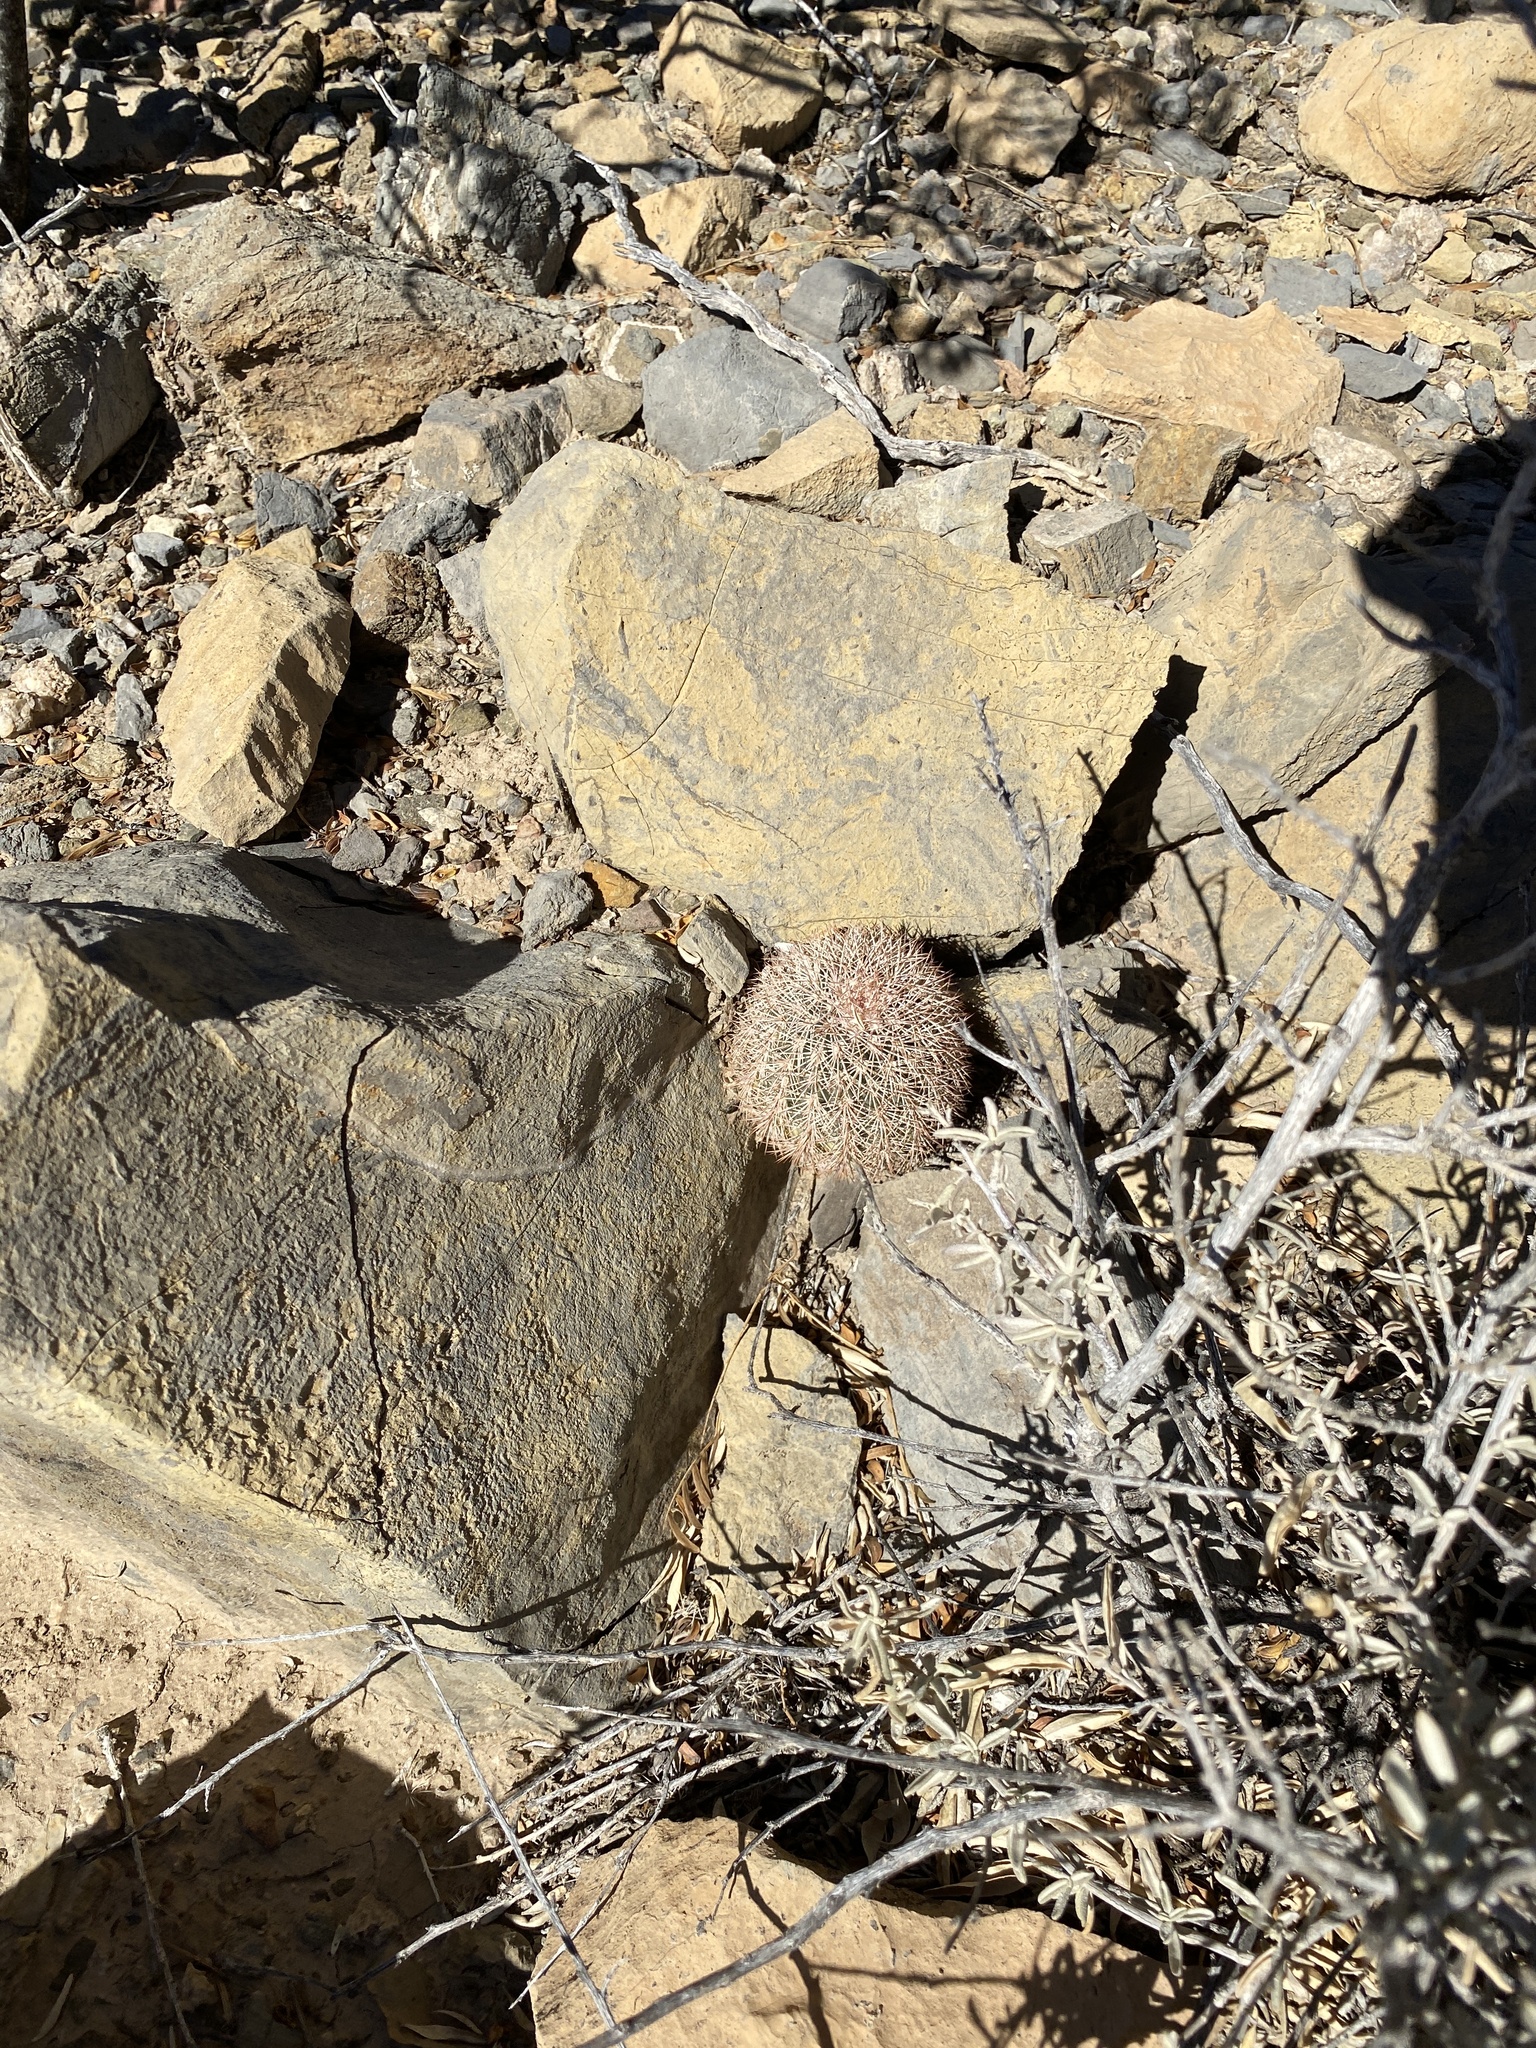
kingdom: Plantae
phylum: Tracheophyta
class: Magnoliopsida
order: Caryophyllales
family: Cactaceae
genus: Echinocereus
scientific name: Echinocereus dasyacanthus
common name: Spiny hedgehog cactus
